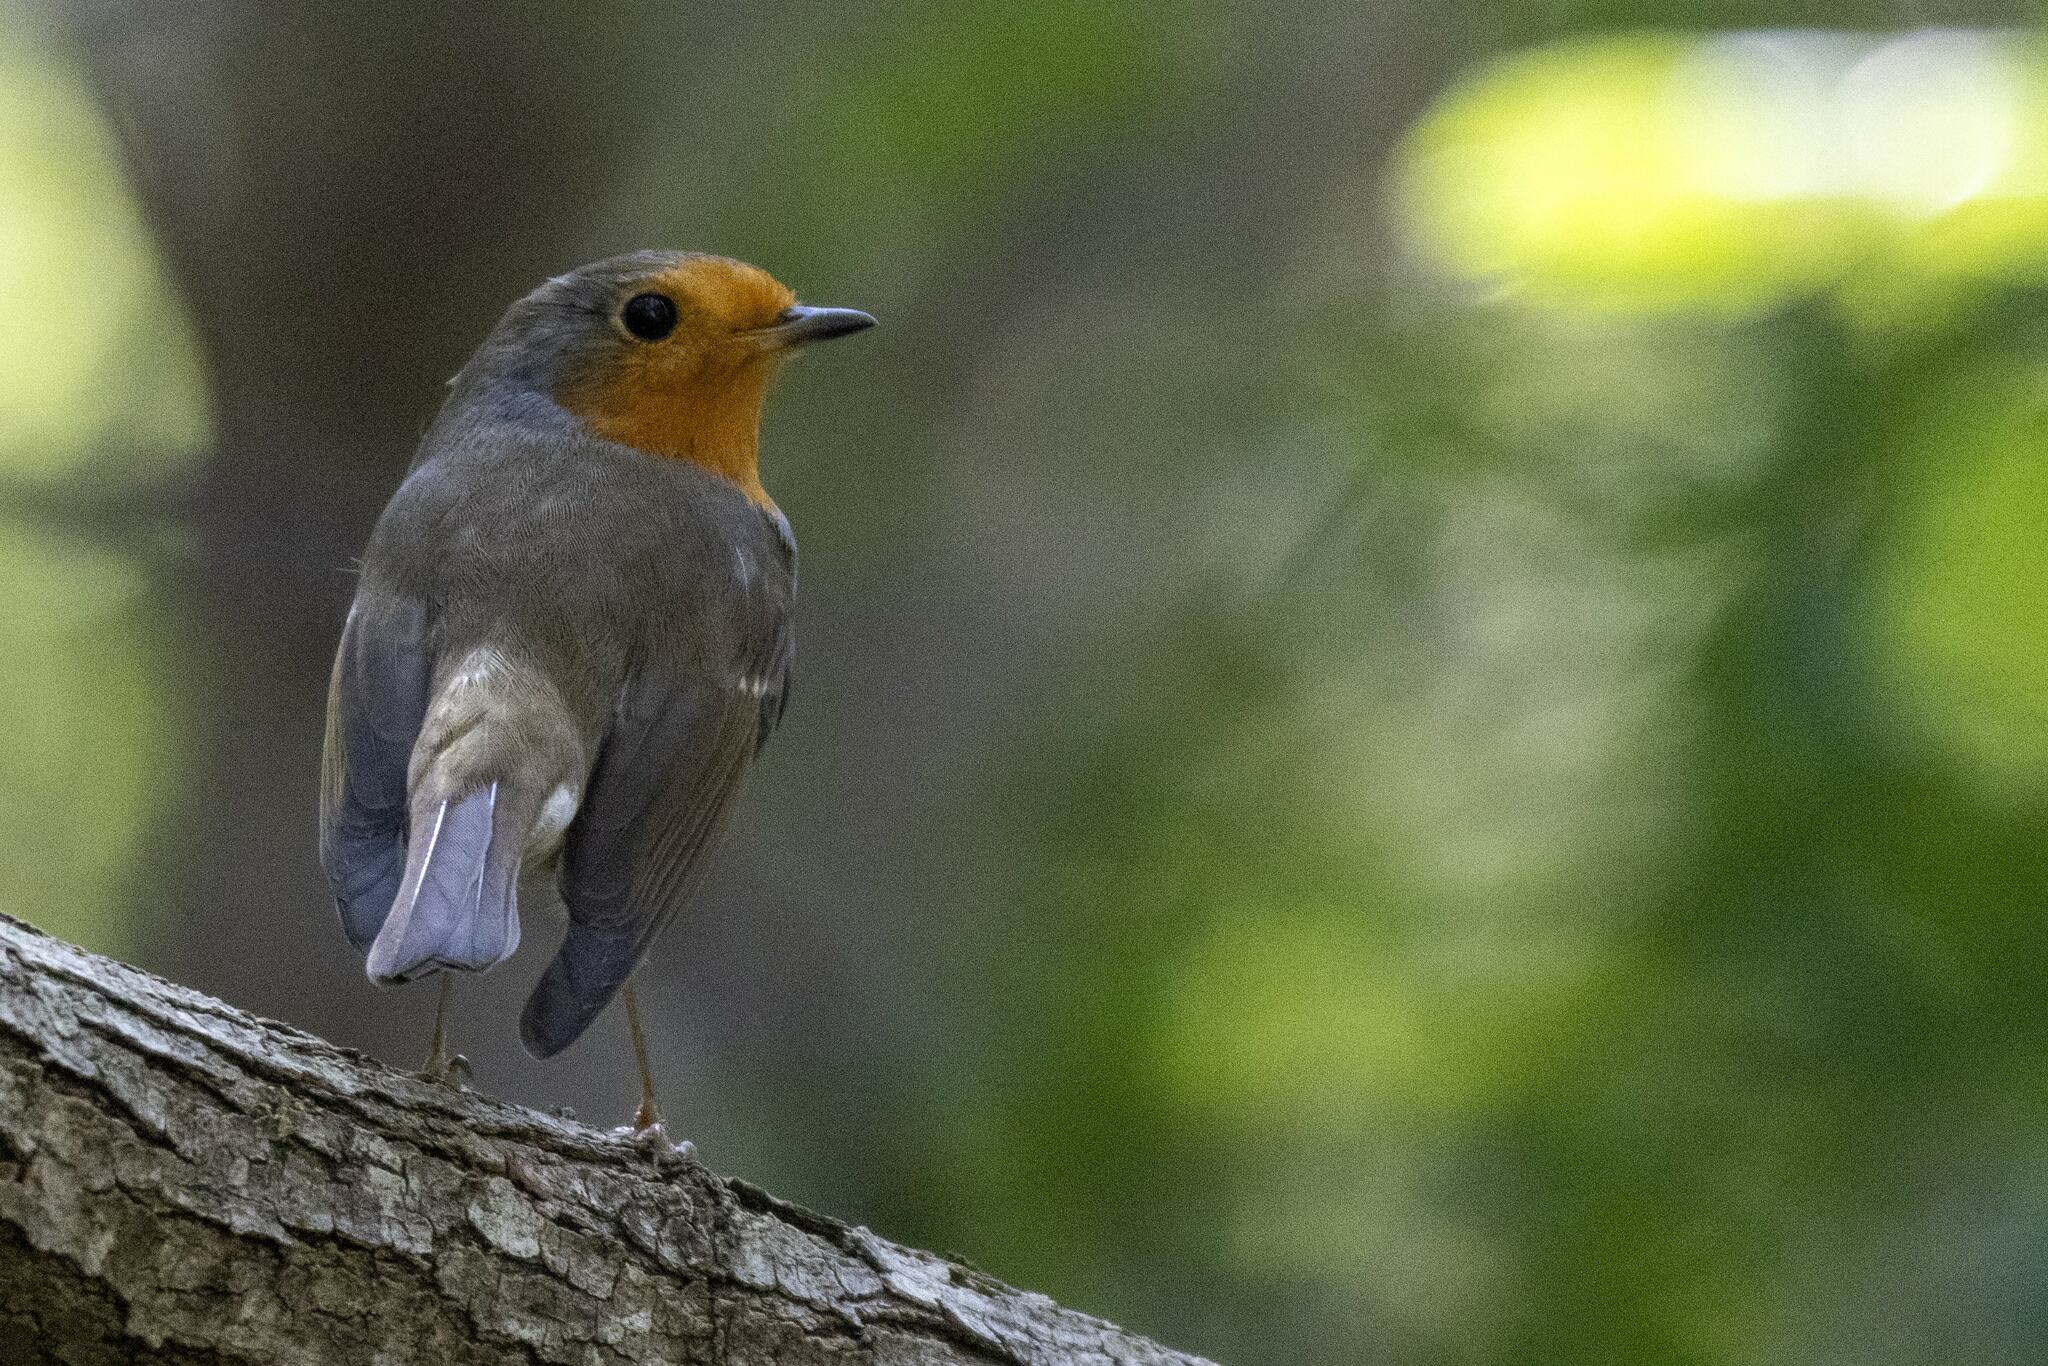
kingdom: Animalia
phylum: Chordata
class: Aves
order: Passeriformes
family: Muscicapidae
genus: Erithacus
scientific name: Erithacus rubecula
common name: European robin
